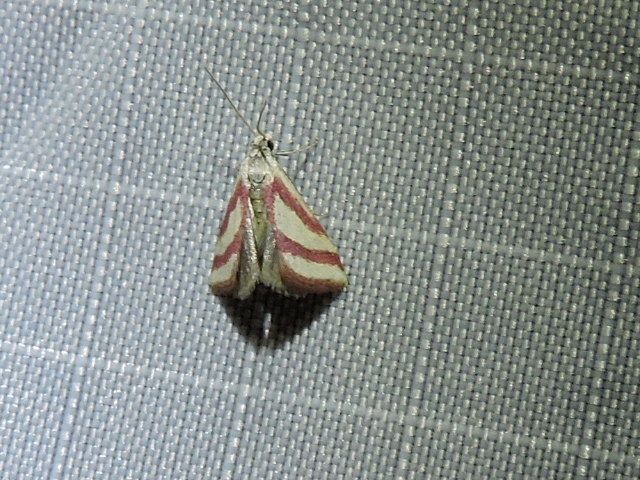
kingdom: Animalia
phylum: Arthropoda
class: Insecta
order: Lepidoptera
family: Crambidae
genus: Microtheoris
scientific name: Microtheoris vibicalis
